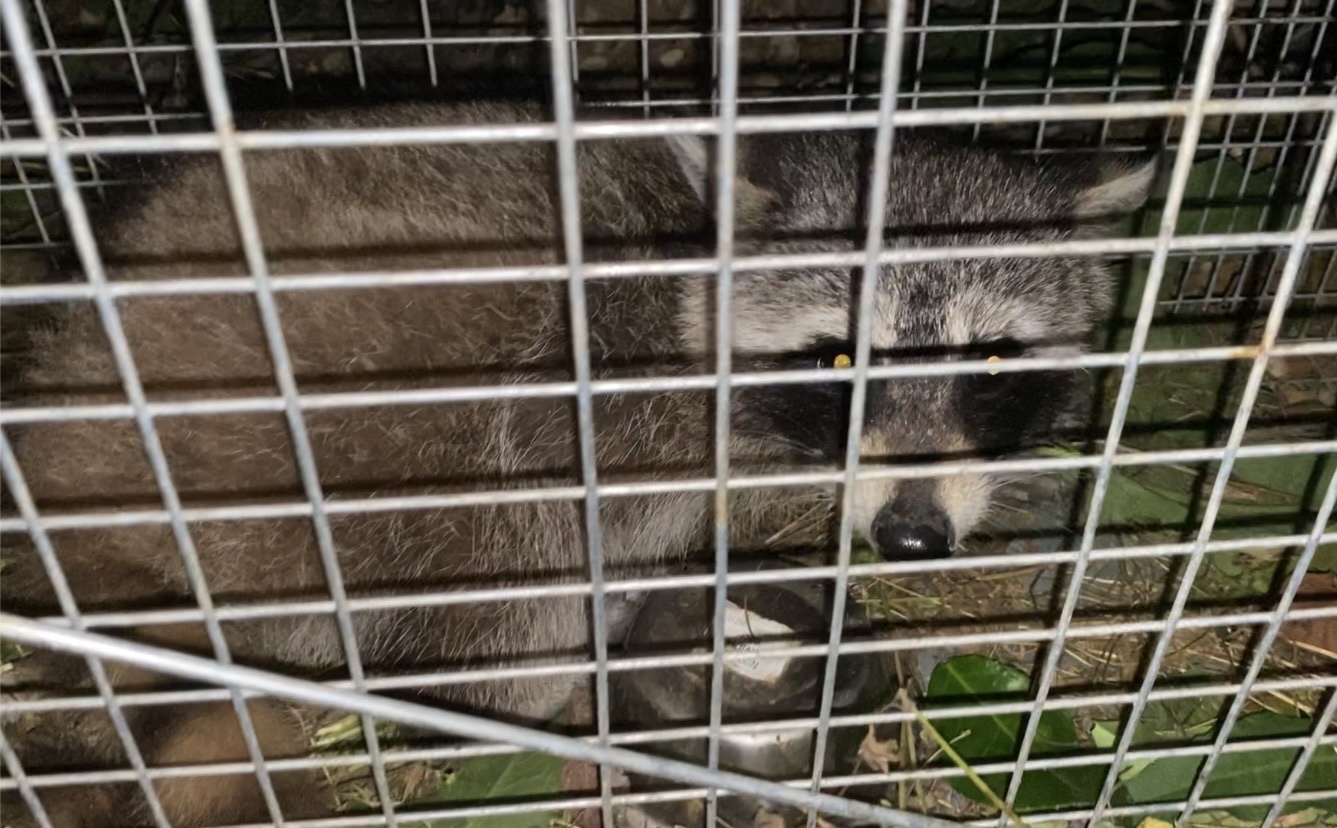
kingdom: Animalia
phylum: Chordata
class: Mammalia
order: Carnivora
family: Procyonidae
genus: Procyon
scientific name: Procyon lotor
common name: Raccoon
